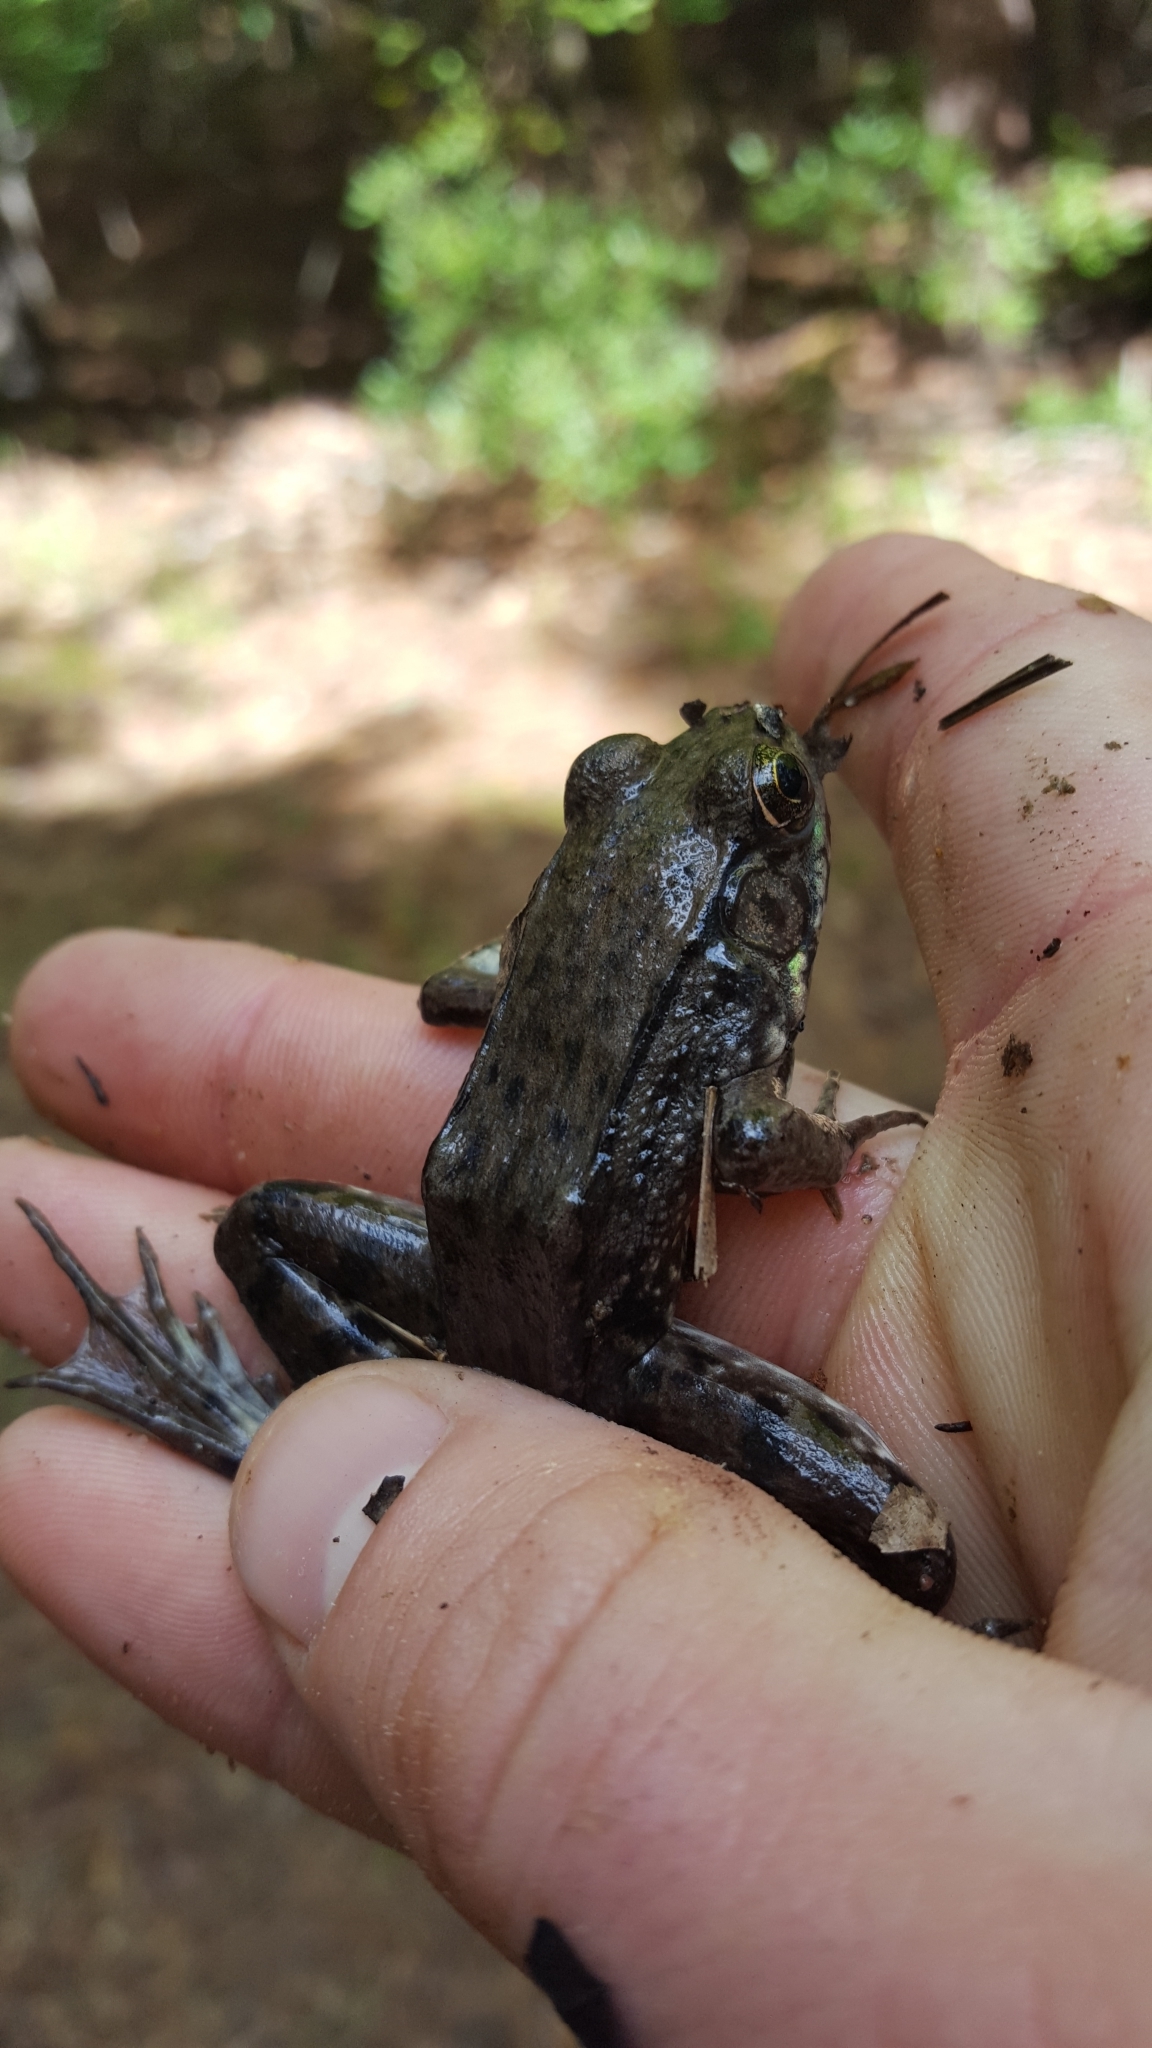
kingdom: Animalia
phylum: Chordata
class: Amphibia
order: Anura
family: Ranidae
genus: Lithobates
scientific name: Lithobates clamitans
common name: Green frog
